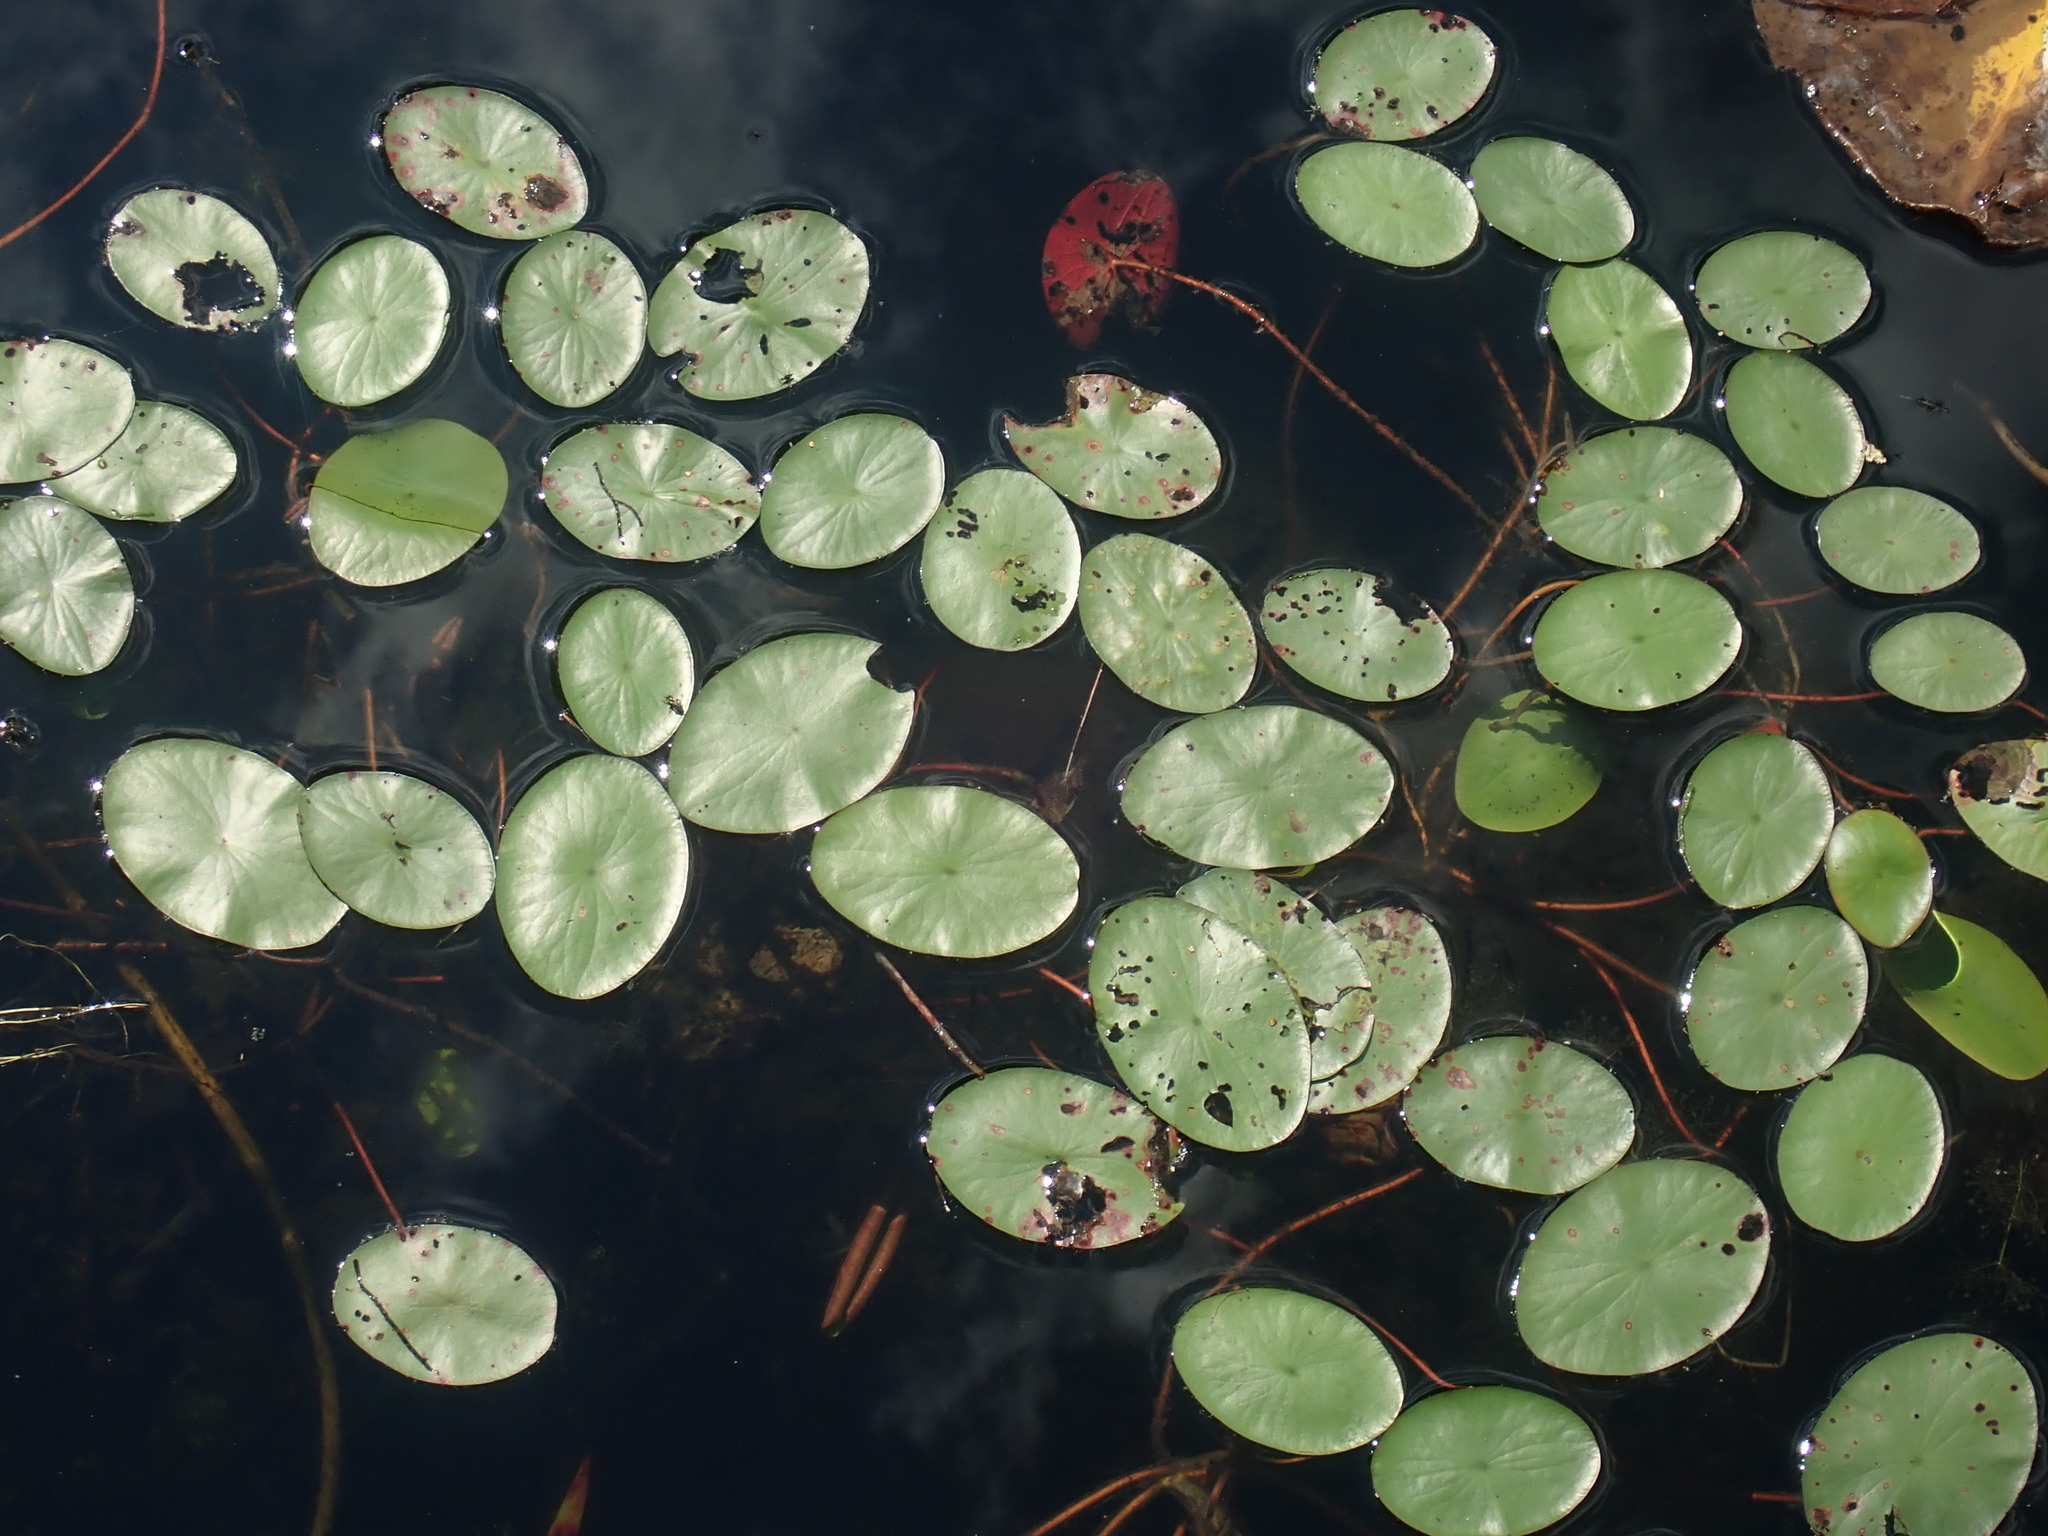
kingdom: Plantae
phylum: Tracheophyta
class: Magnoliopsida
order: Nymphaeales
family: Cabombaceae
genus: Brasenia
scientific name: Brasenia schreberi
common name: Water-shield
